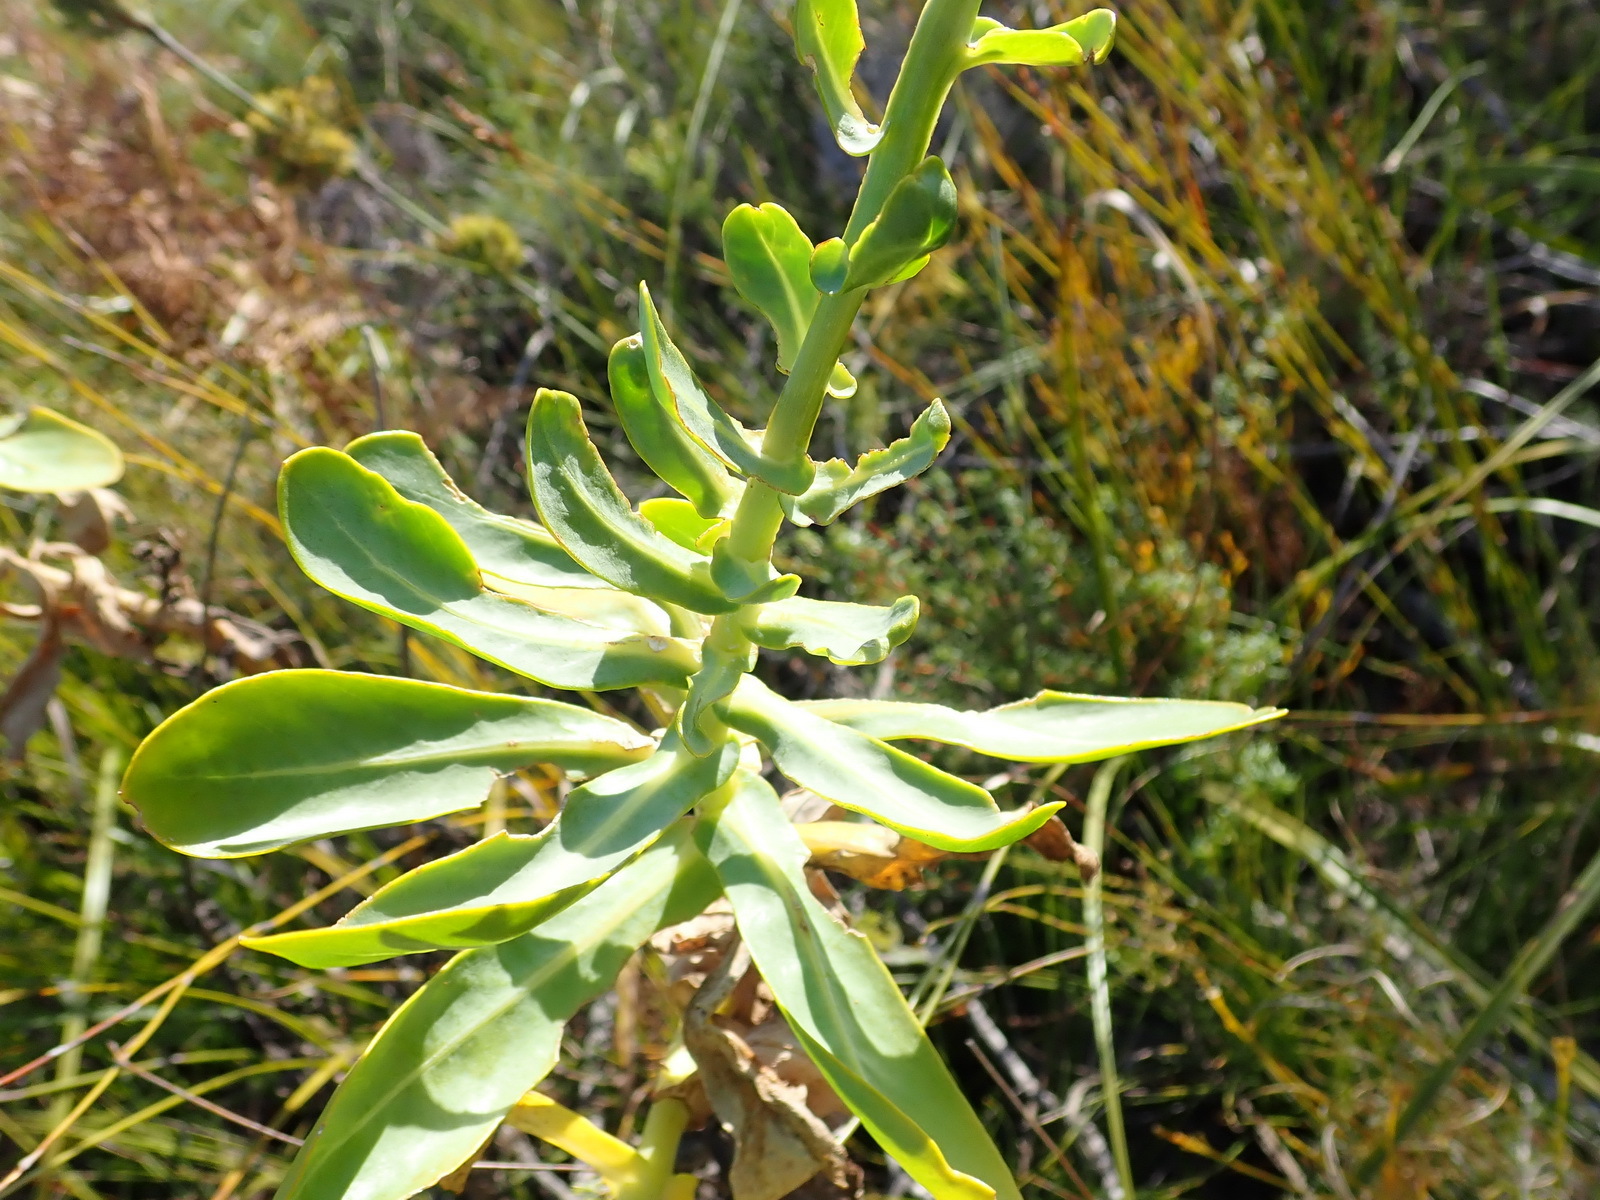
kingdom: Plantae
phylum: Tracheophyta
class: Magnoliopsida
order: Asterales
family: Asteraceae
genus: Othonna
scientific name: Othonna parviflora
